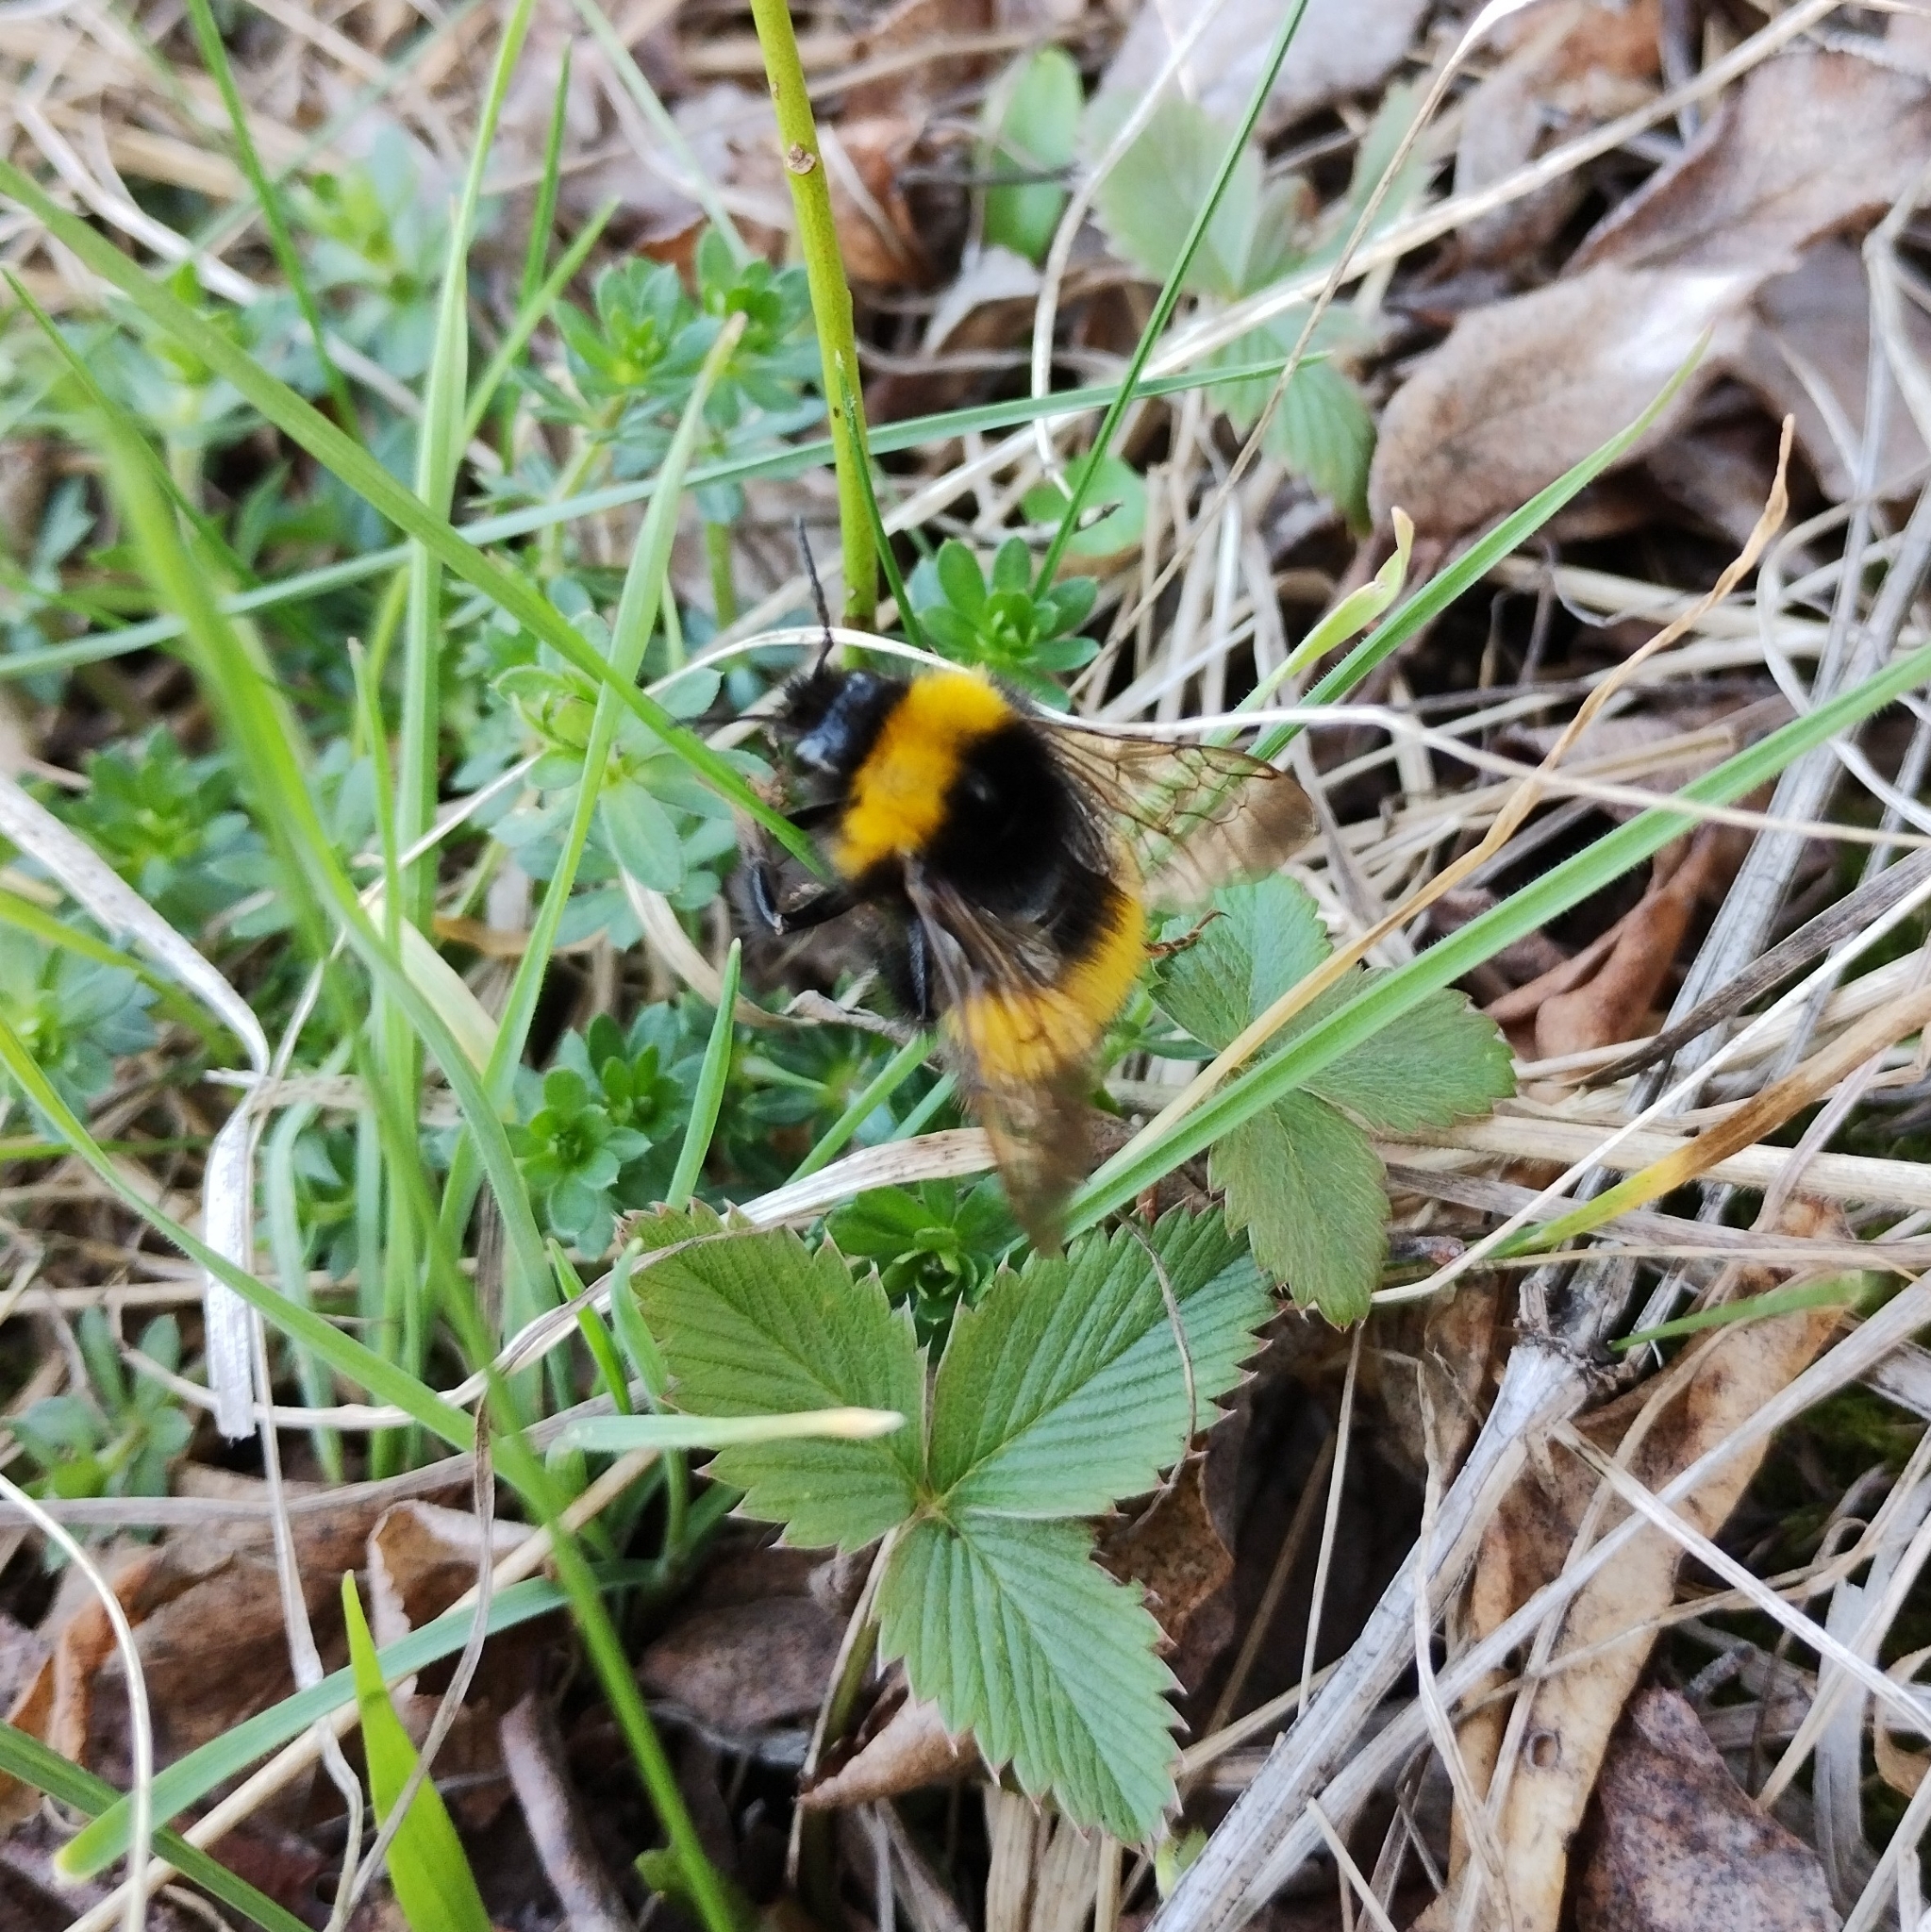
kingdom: Animalia
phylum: Arthropoda
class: Insecta
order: Hymenoptera
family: Apidae
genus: Bombus
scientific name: Bombus haematurus
